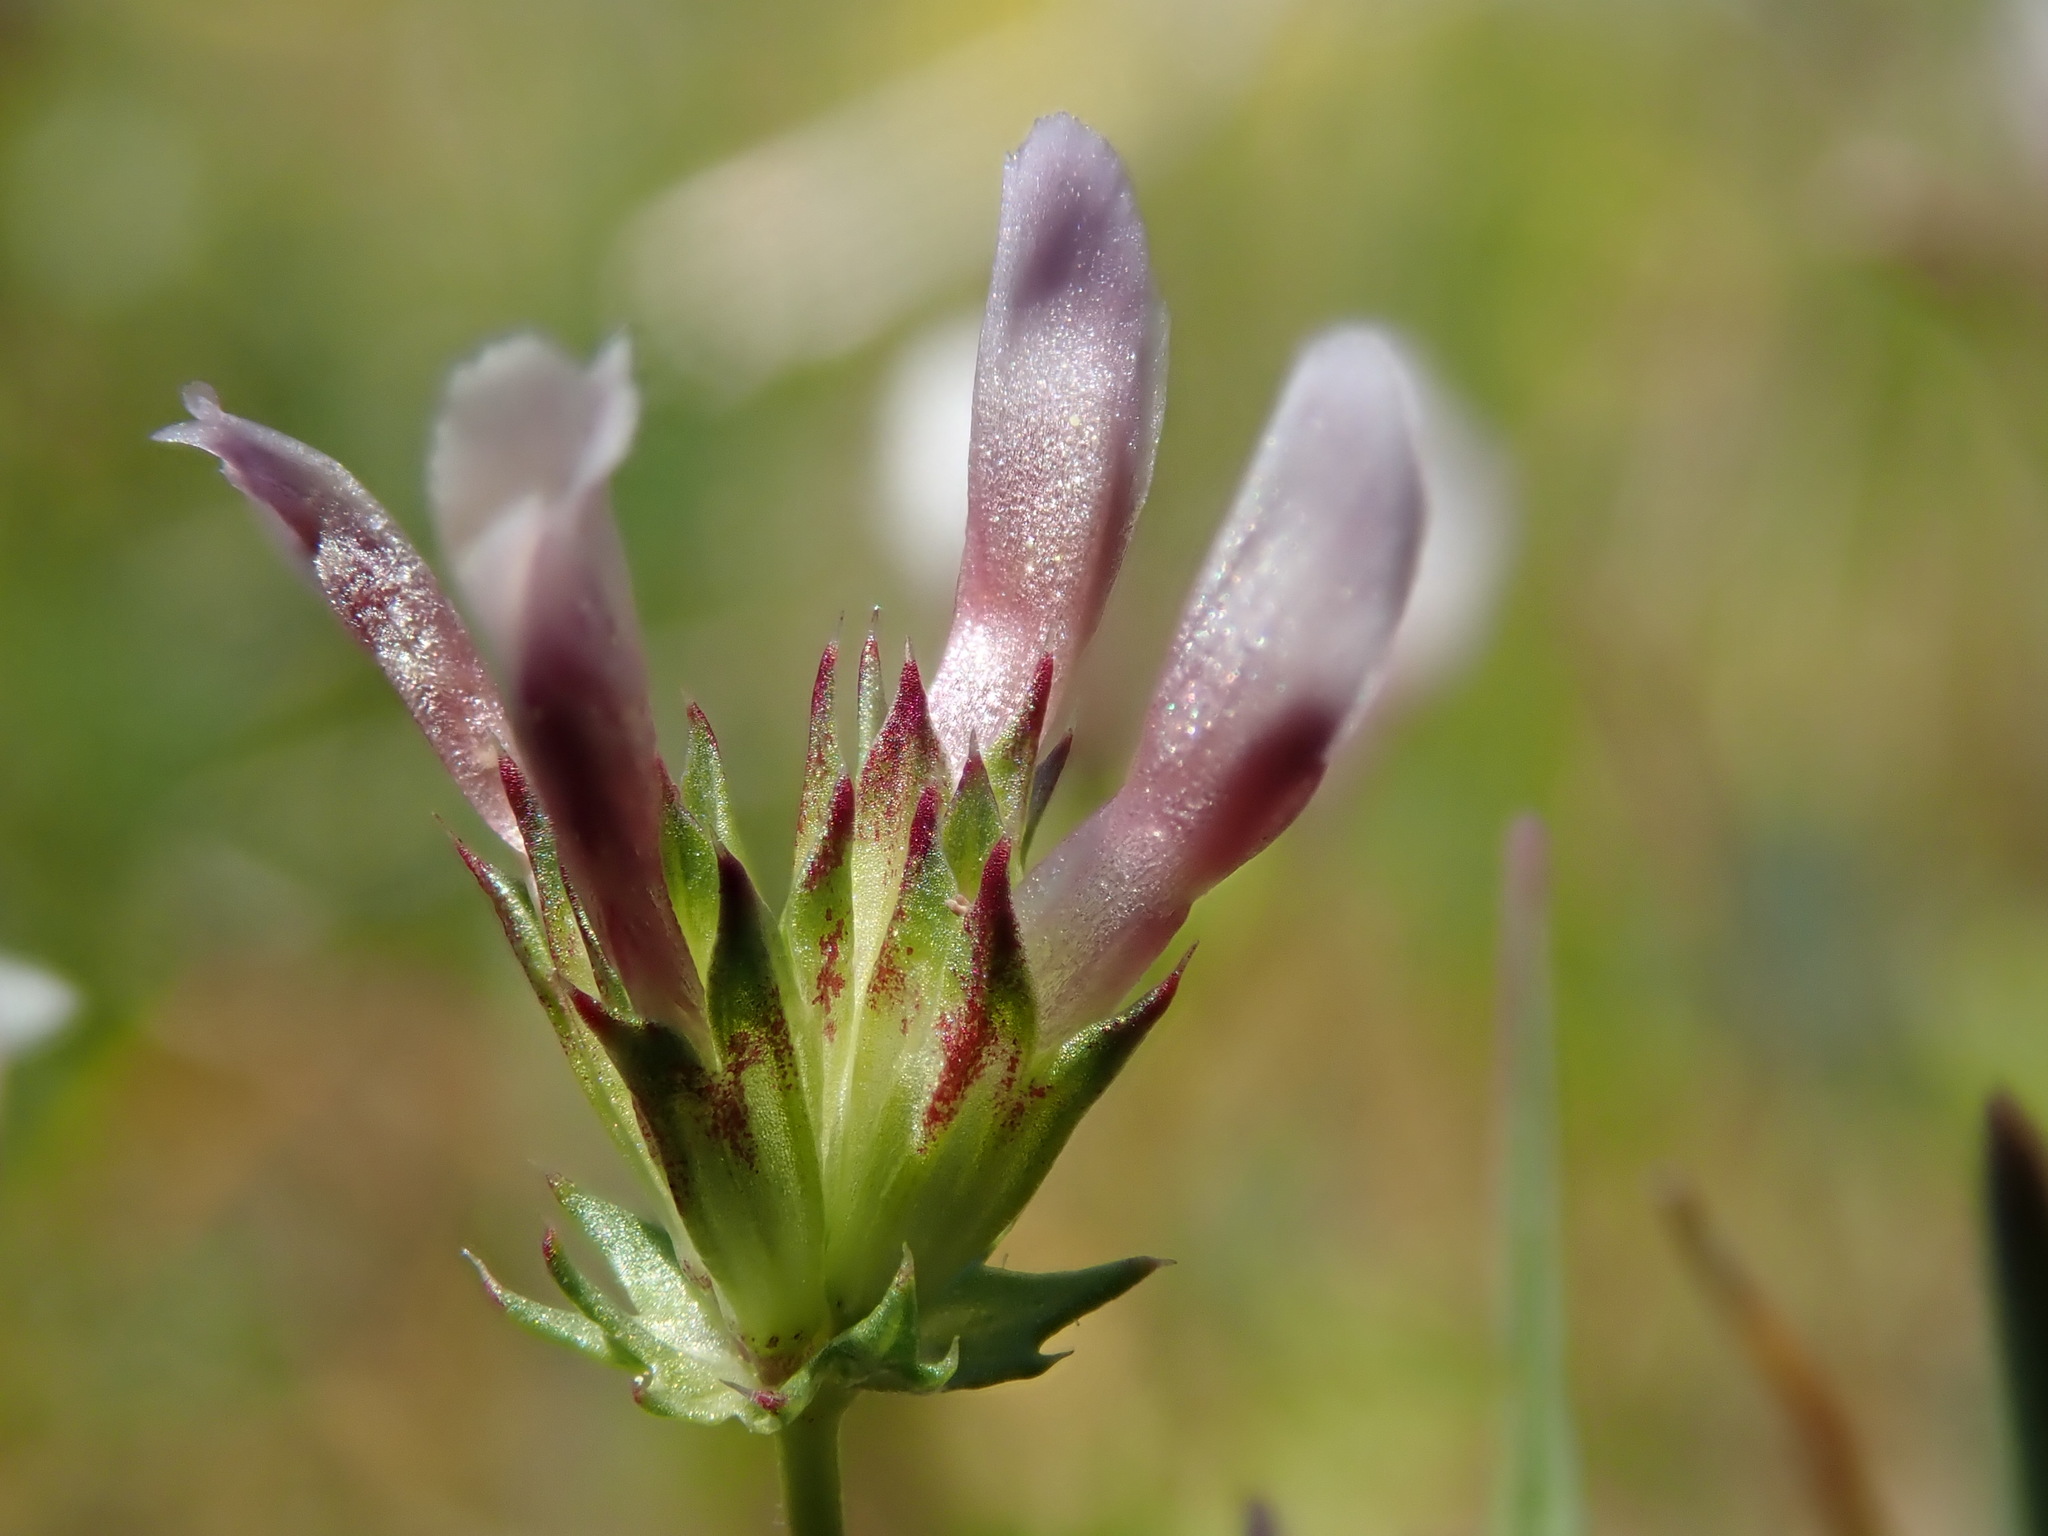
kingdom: Plantae
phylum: Tracheophyta
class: Magnoliopsida
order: Fabales
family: Fabaceae
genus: Trifolium
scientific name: Trifolium oliganthum
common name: Few-flower clover
